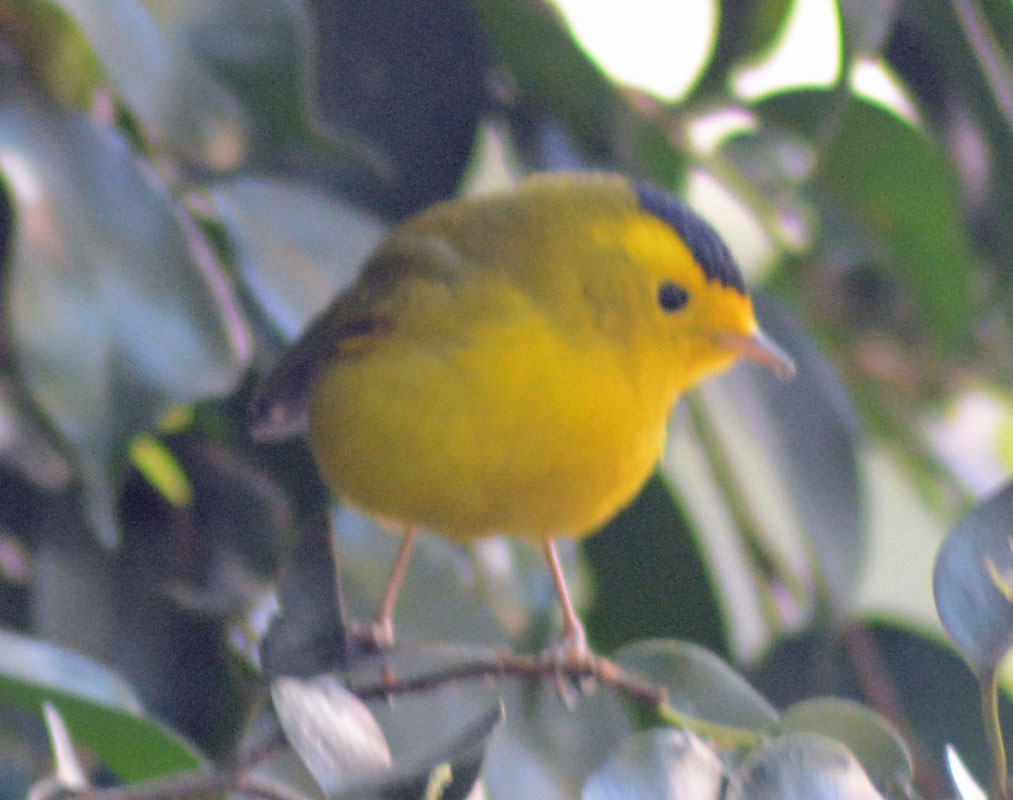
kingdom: Animalia
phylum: Chordata
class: Aves
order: Passeriformes
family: Parulidae
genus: Cardellina
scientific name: Cardellina pusilla
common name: Wilson's warbler
